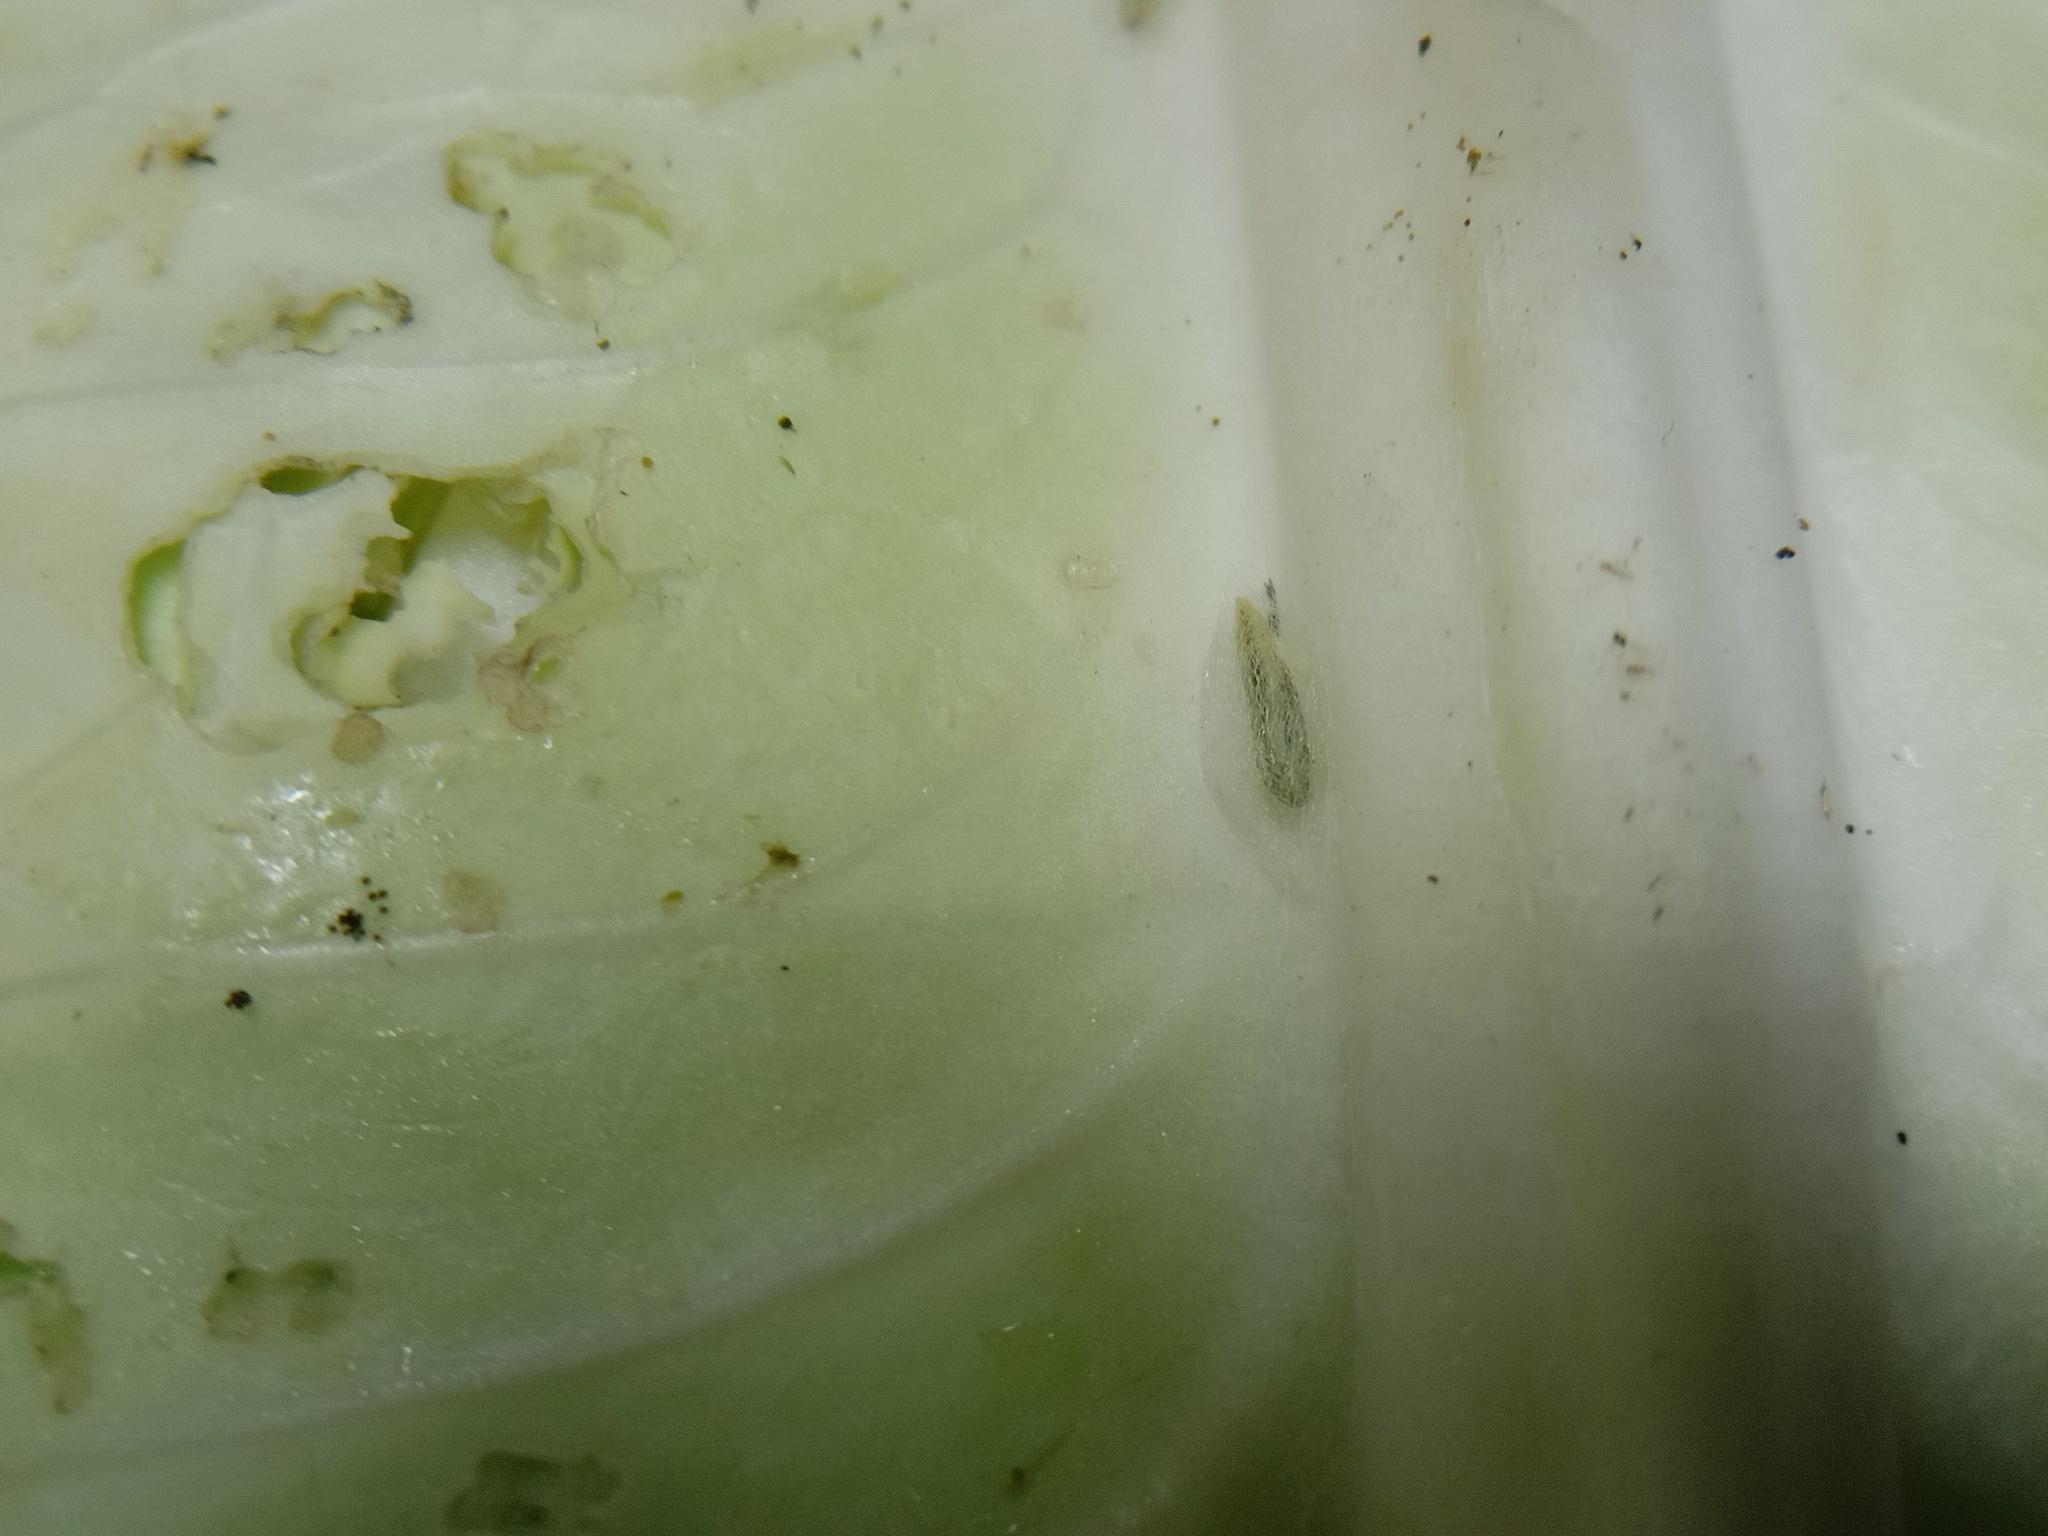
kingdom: Animalia
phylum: Arthropoda
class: Insecta
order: Lepidoptera
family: Plutellidae
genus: Plutella
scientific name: Plutella xylostella
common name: Diamond-back moth
